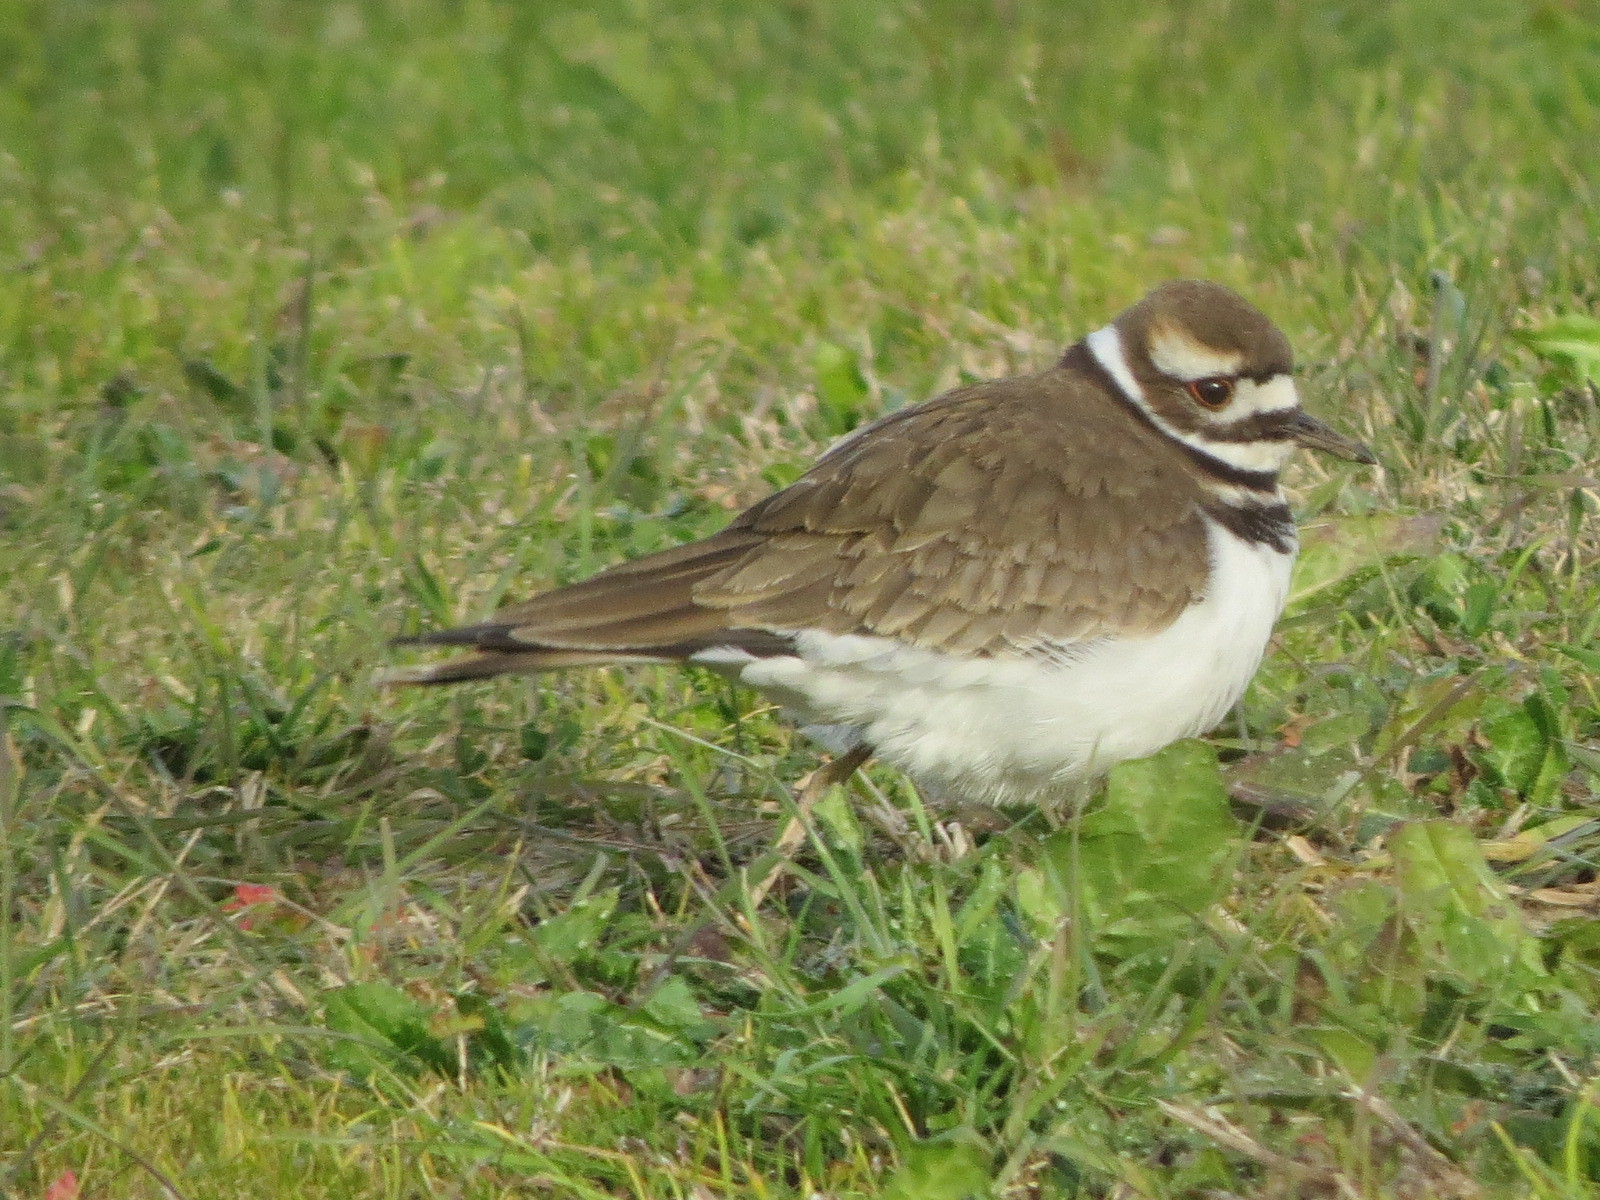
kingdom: Animalia
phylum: Chordata
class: Aves
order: Charadriiformes
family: Charadriidae
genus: Charadrius
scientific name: Charadrius vociferus
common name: Killdeer
